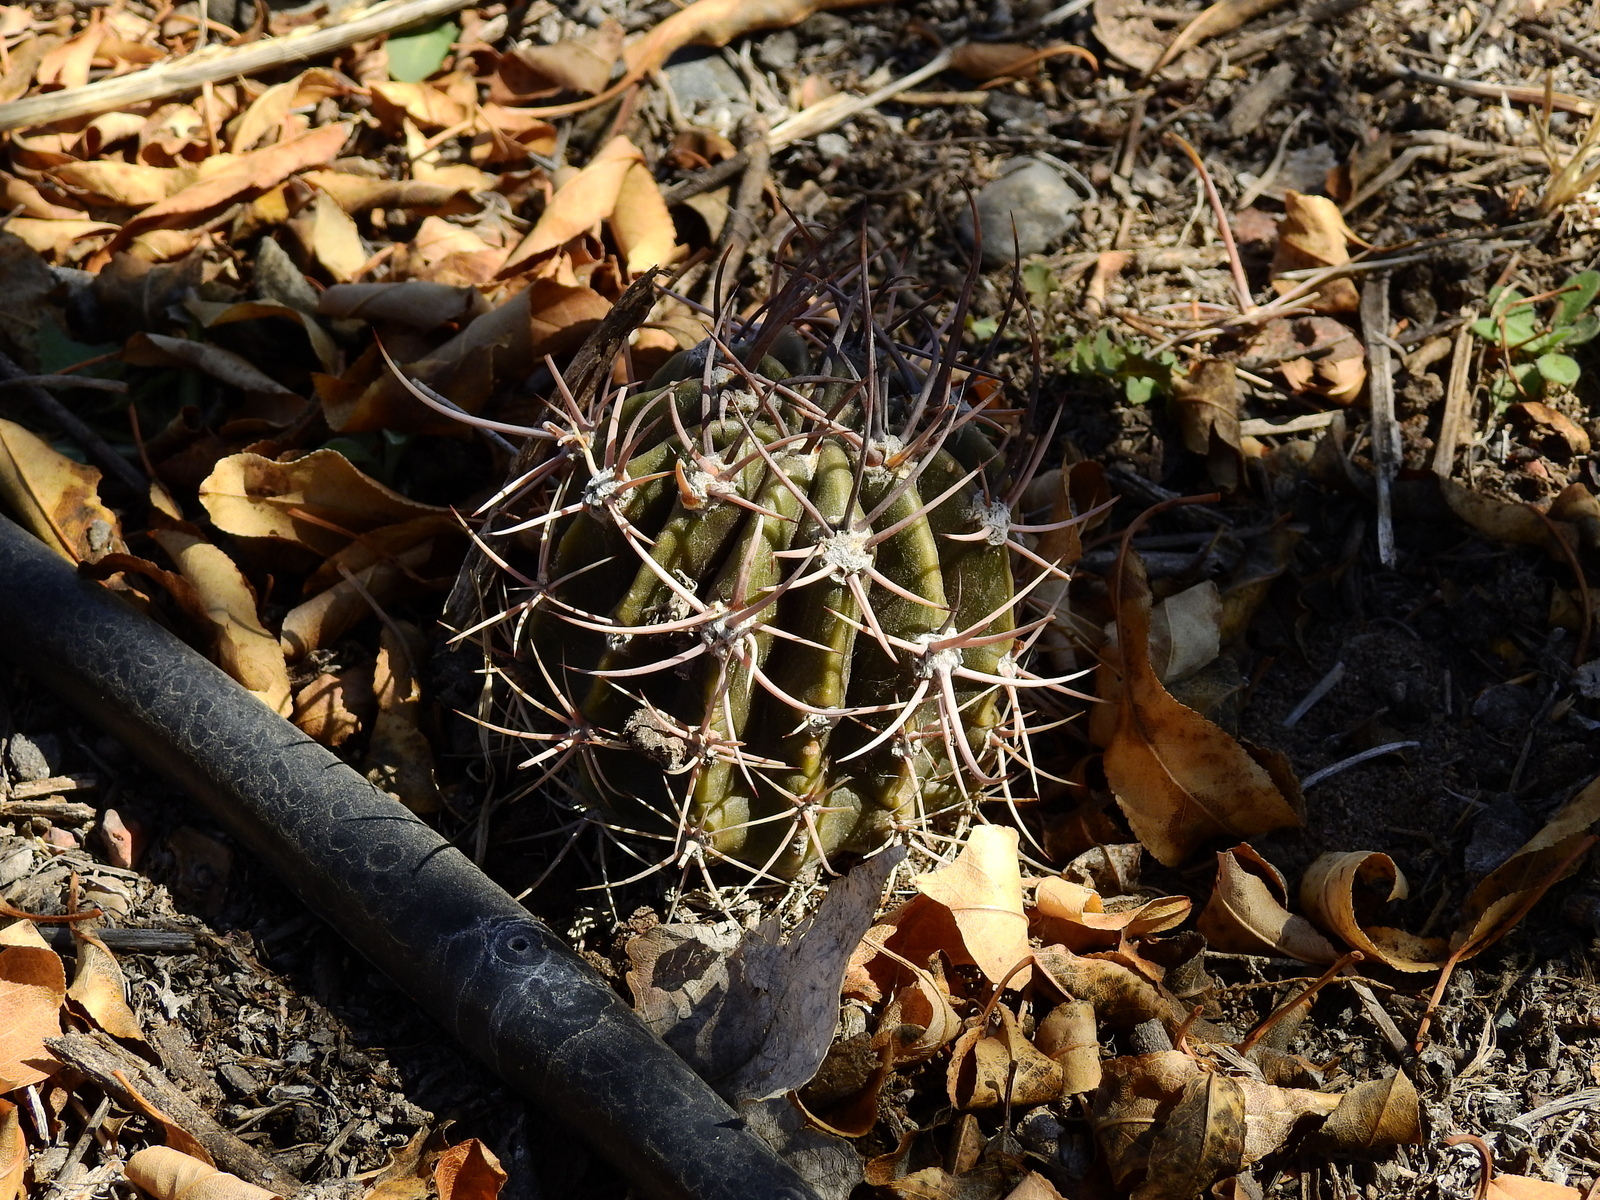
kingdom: Plantae
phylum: Tracheophyta
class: Magnoliopsida
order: Caryophyllales
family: Cactaceae
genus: Acanthocalycium
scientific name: Acanthocalycium leucanthum
